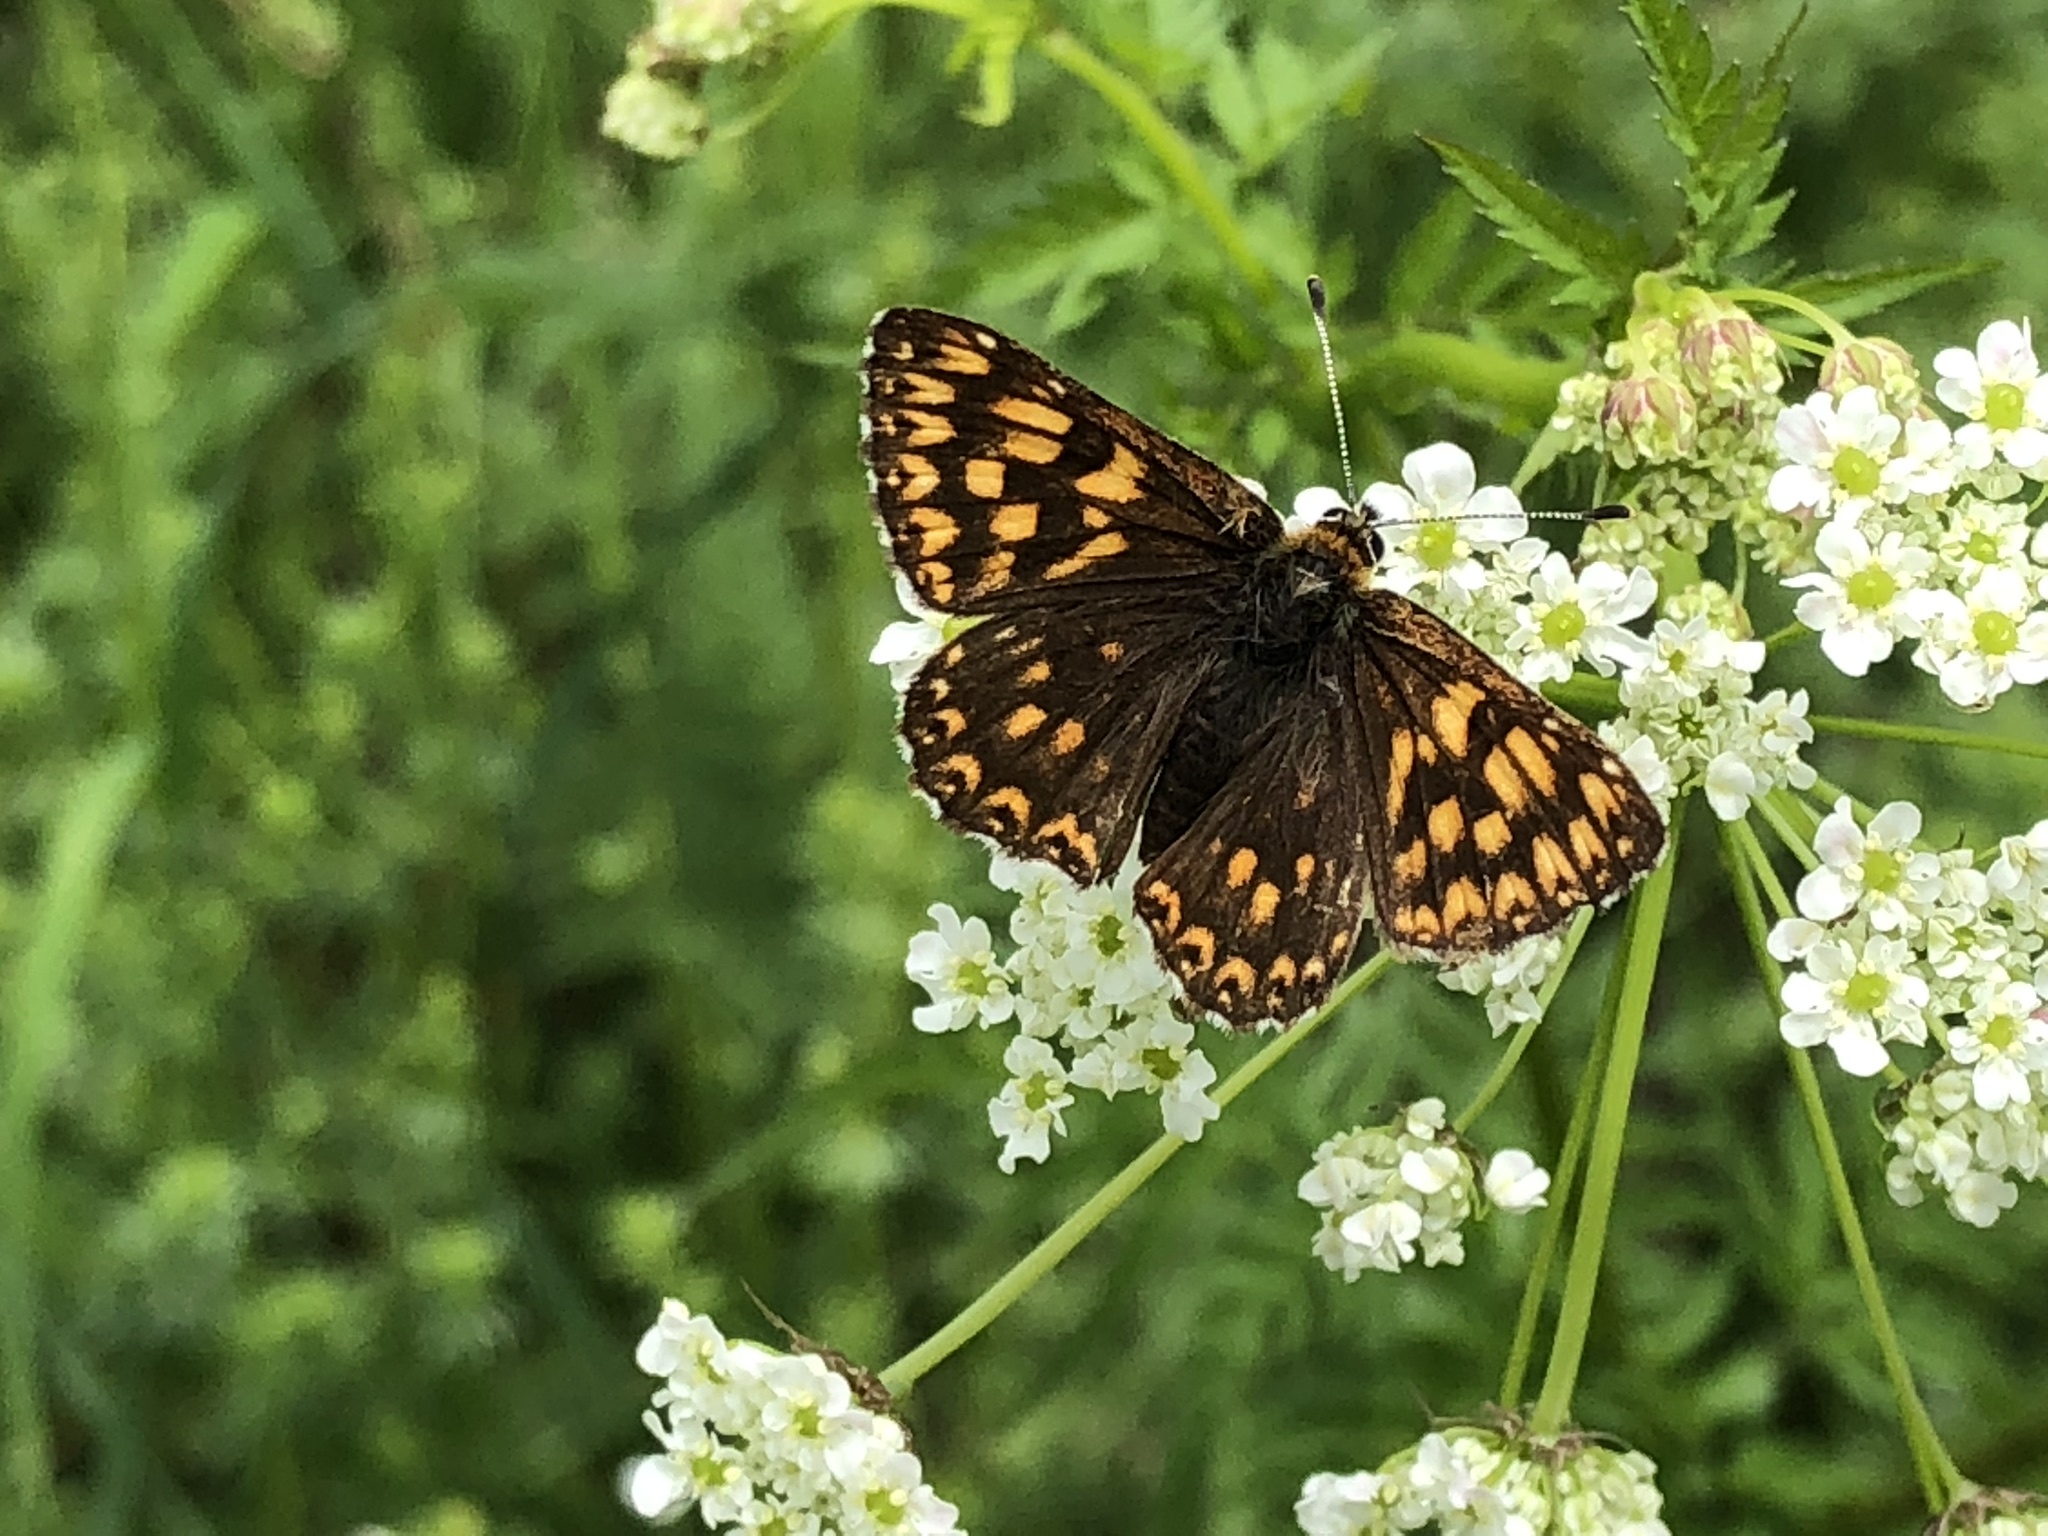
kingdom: Animalia
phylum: Arthropoda
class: Insecta
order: Lepidoptera
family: Riodinidae
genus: Hamearis
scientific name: Hamearis lucina
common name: Duke of burgundy fritillary
